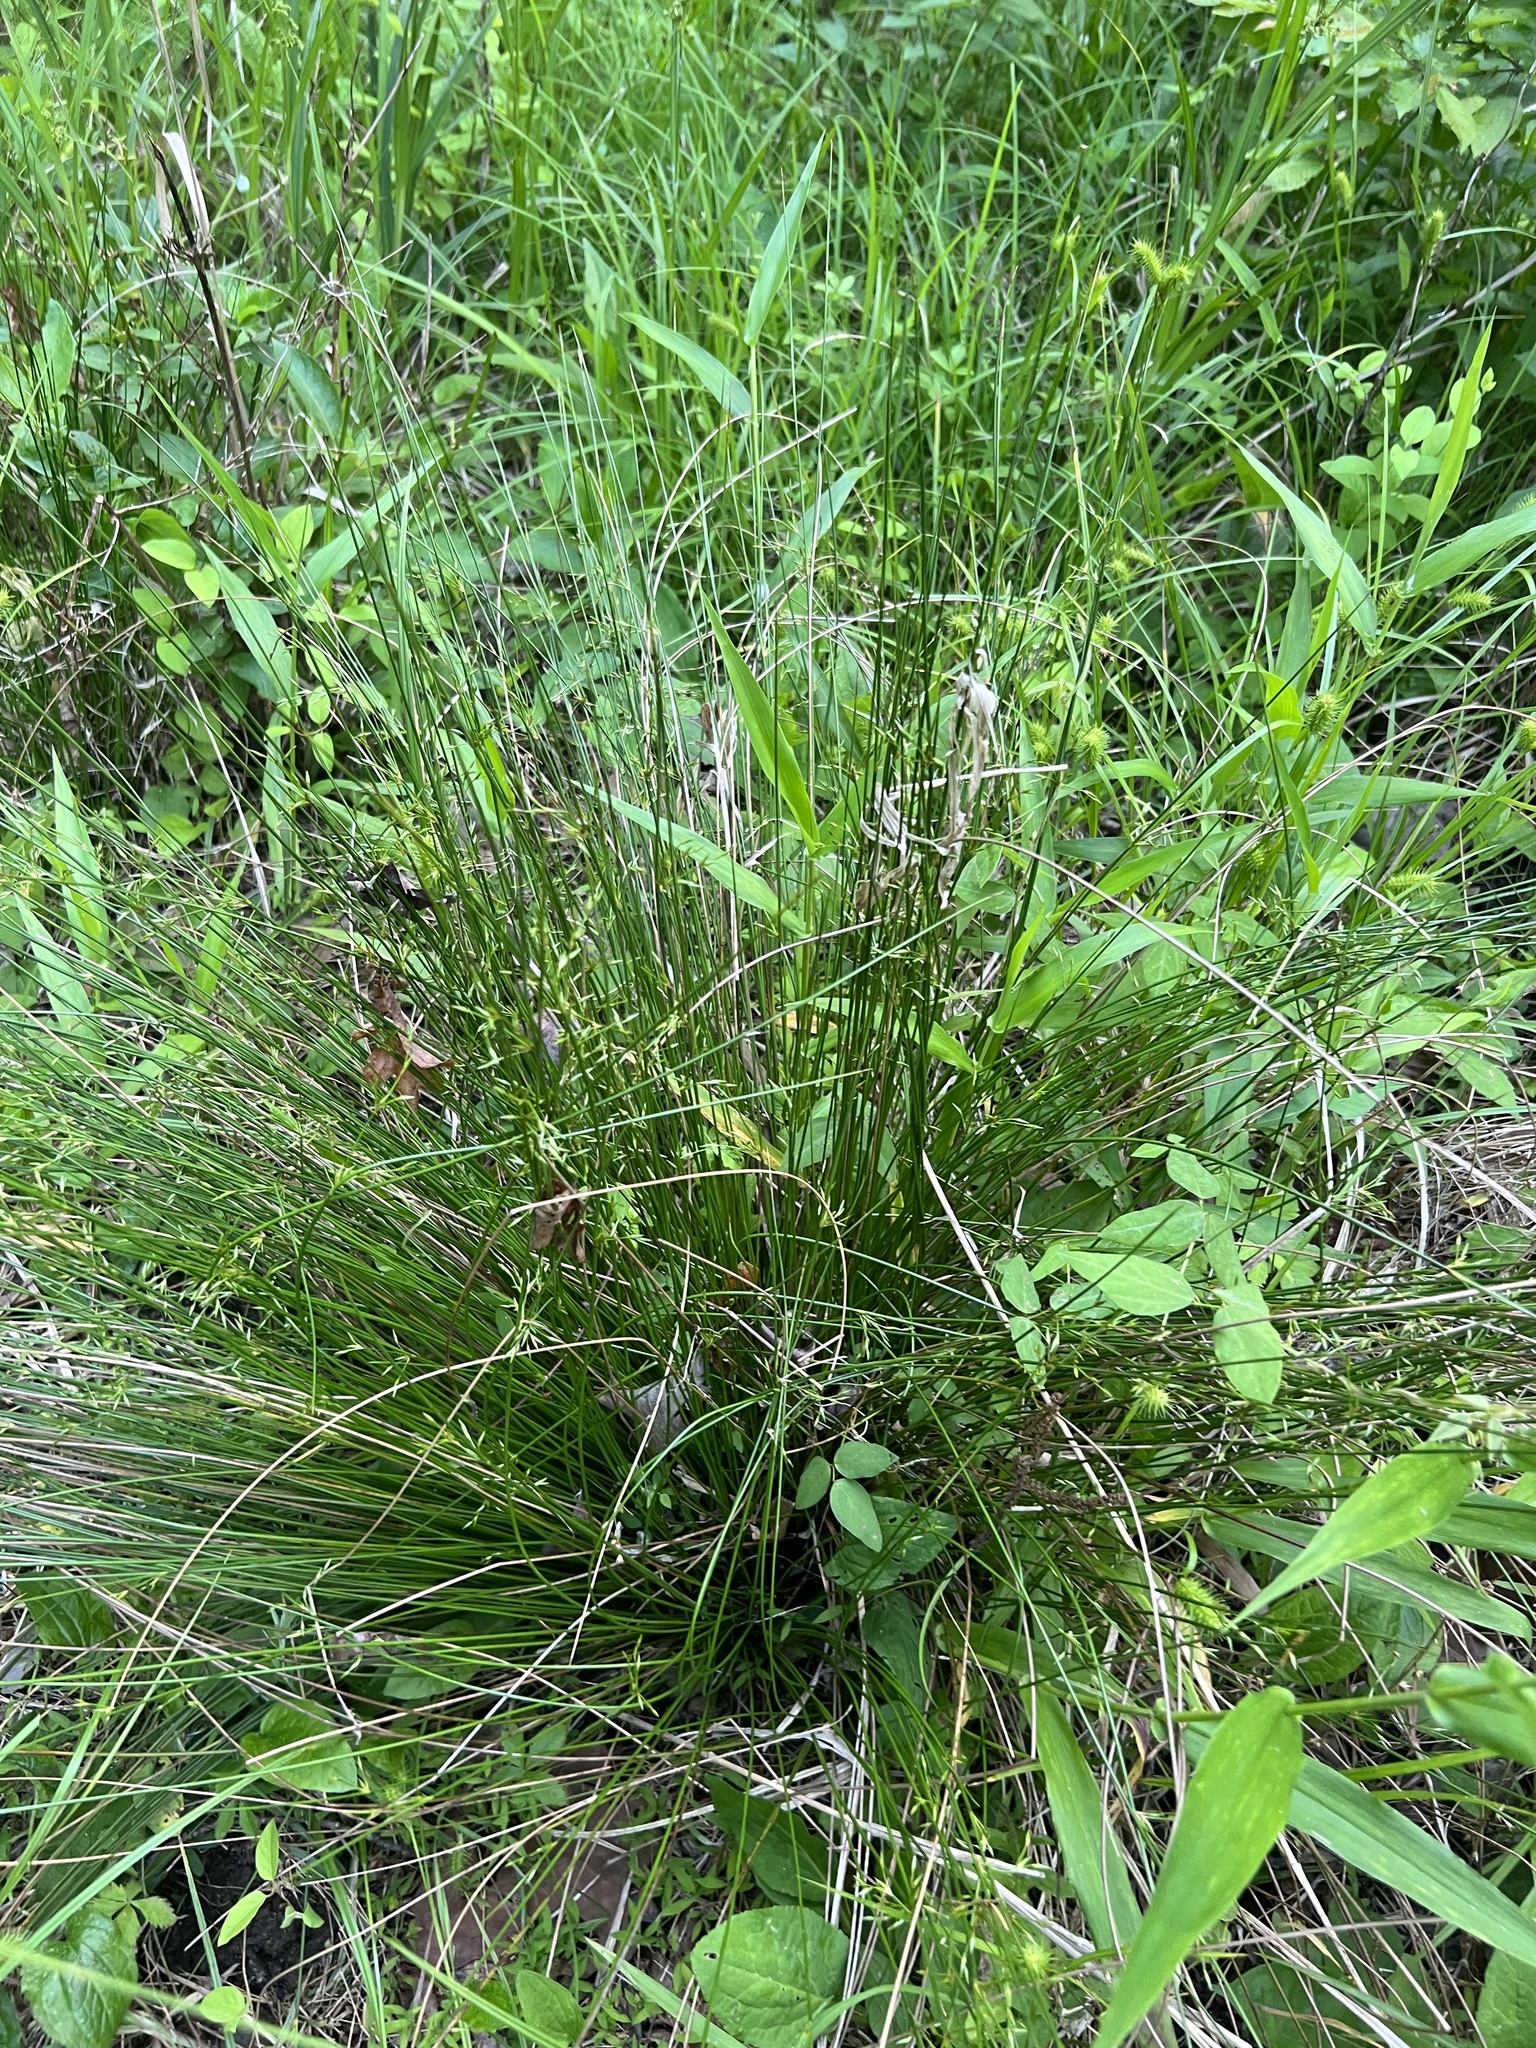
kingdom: Plantae
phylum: Tracheophyta
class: Liliopsida
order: Poales
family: Juncaceae
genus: Juncus
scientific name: Juncus coriaceus
